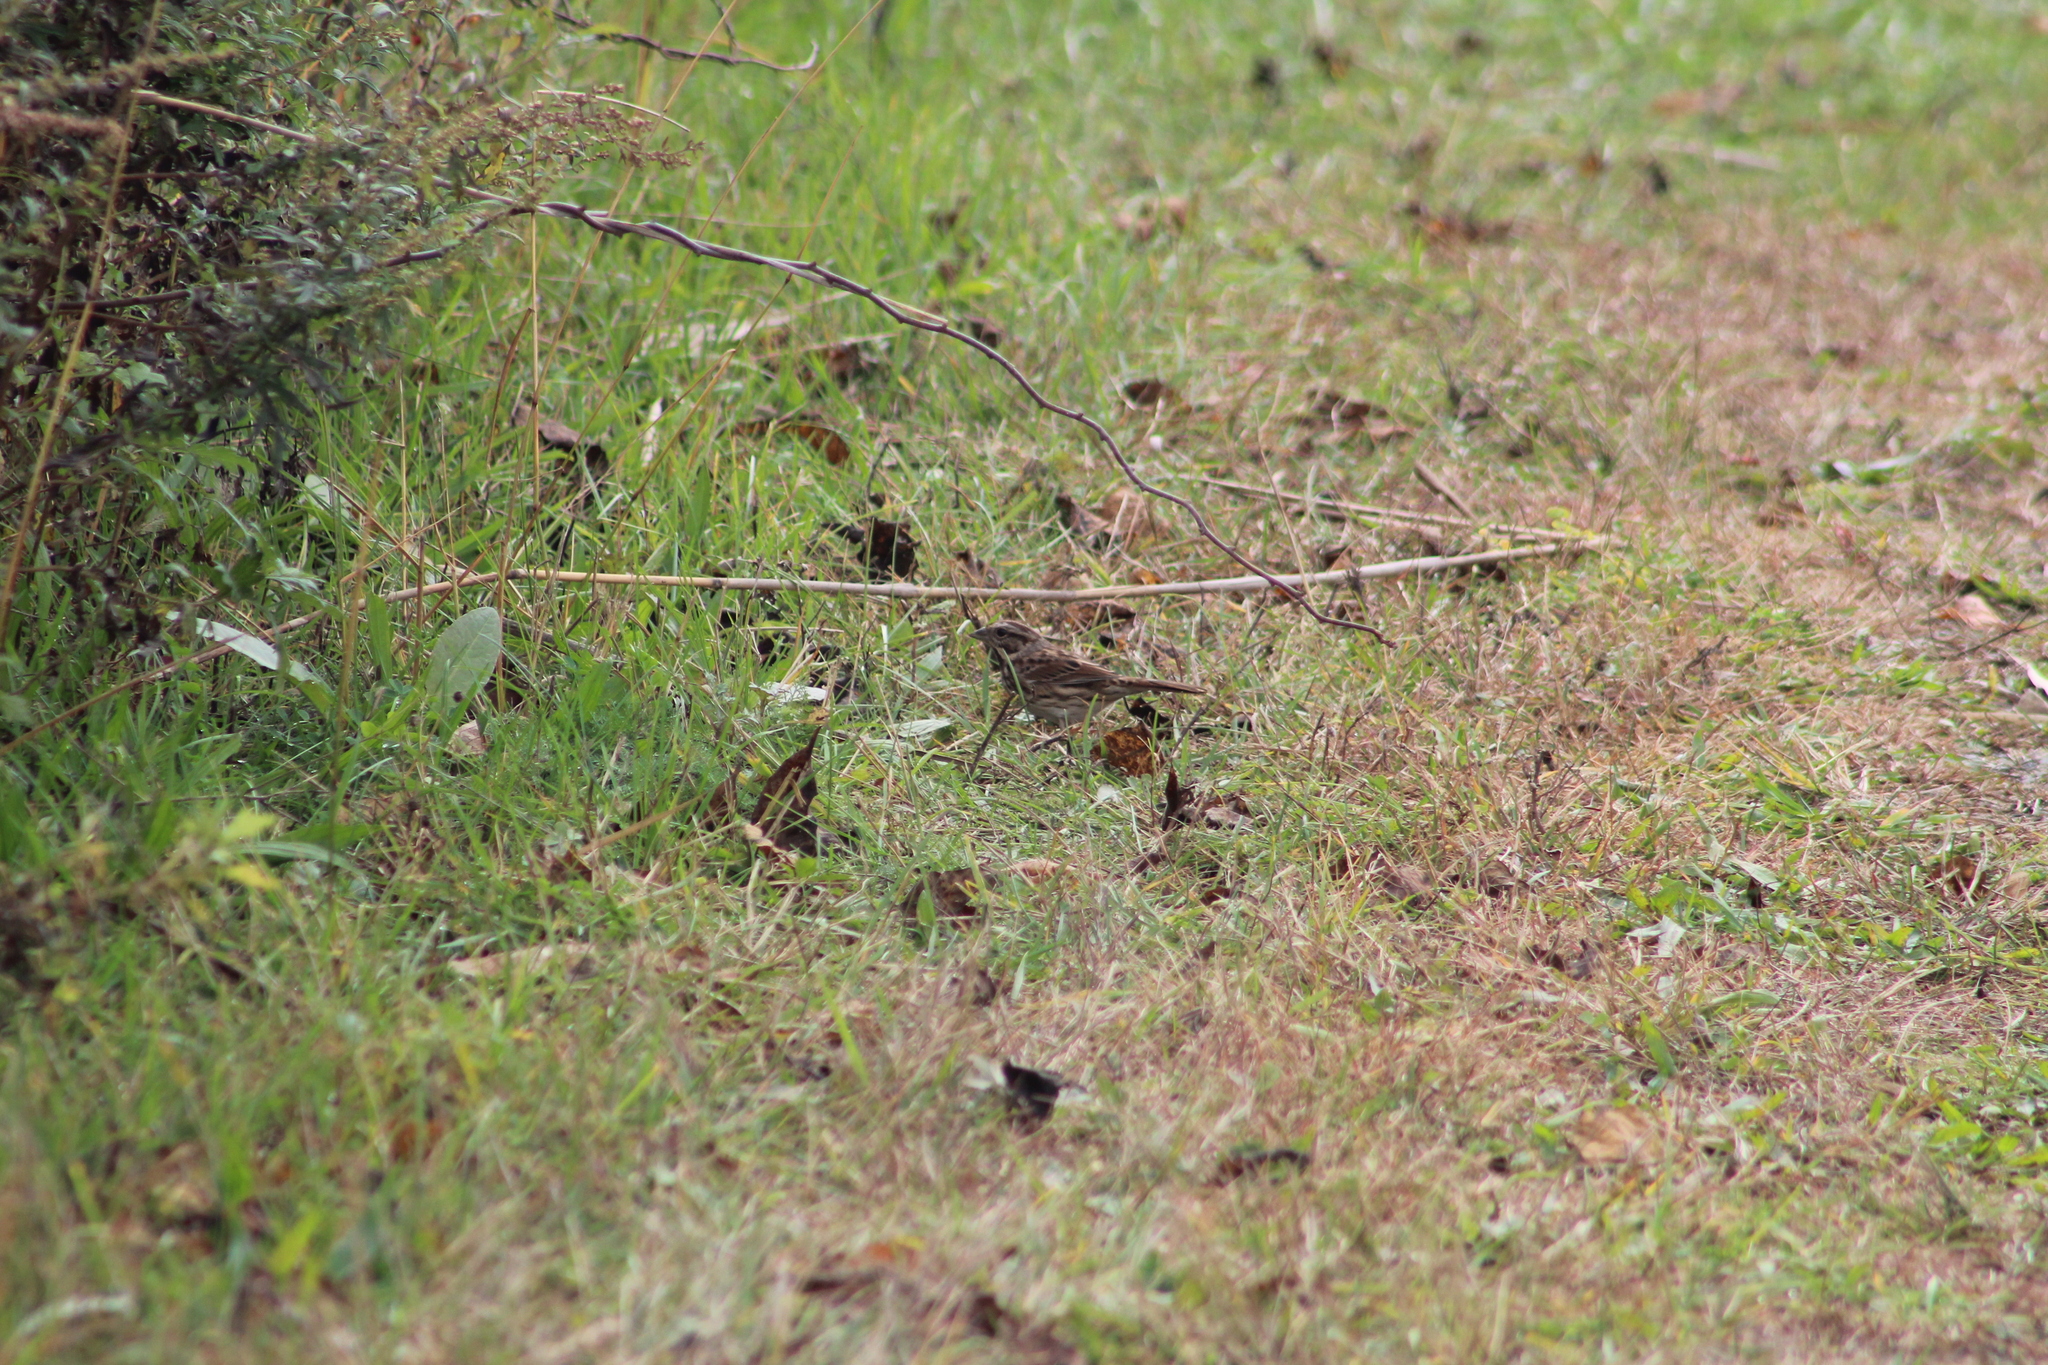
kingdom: Animalia
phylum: Chordata
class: Aves
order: Passeriformes
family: Passerellidae
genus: Melospiza
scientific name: Melospiza melodia
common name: Song sparrow
